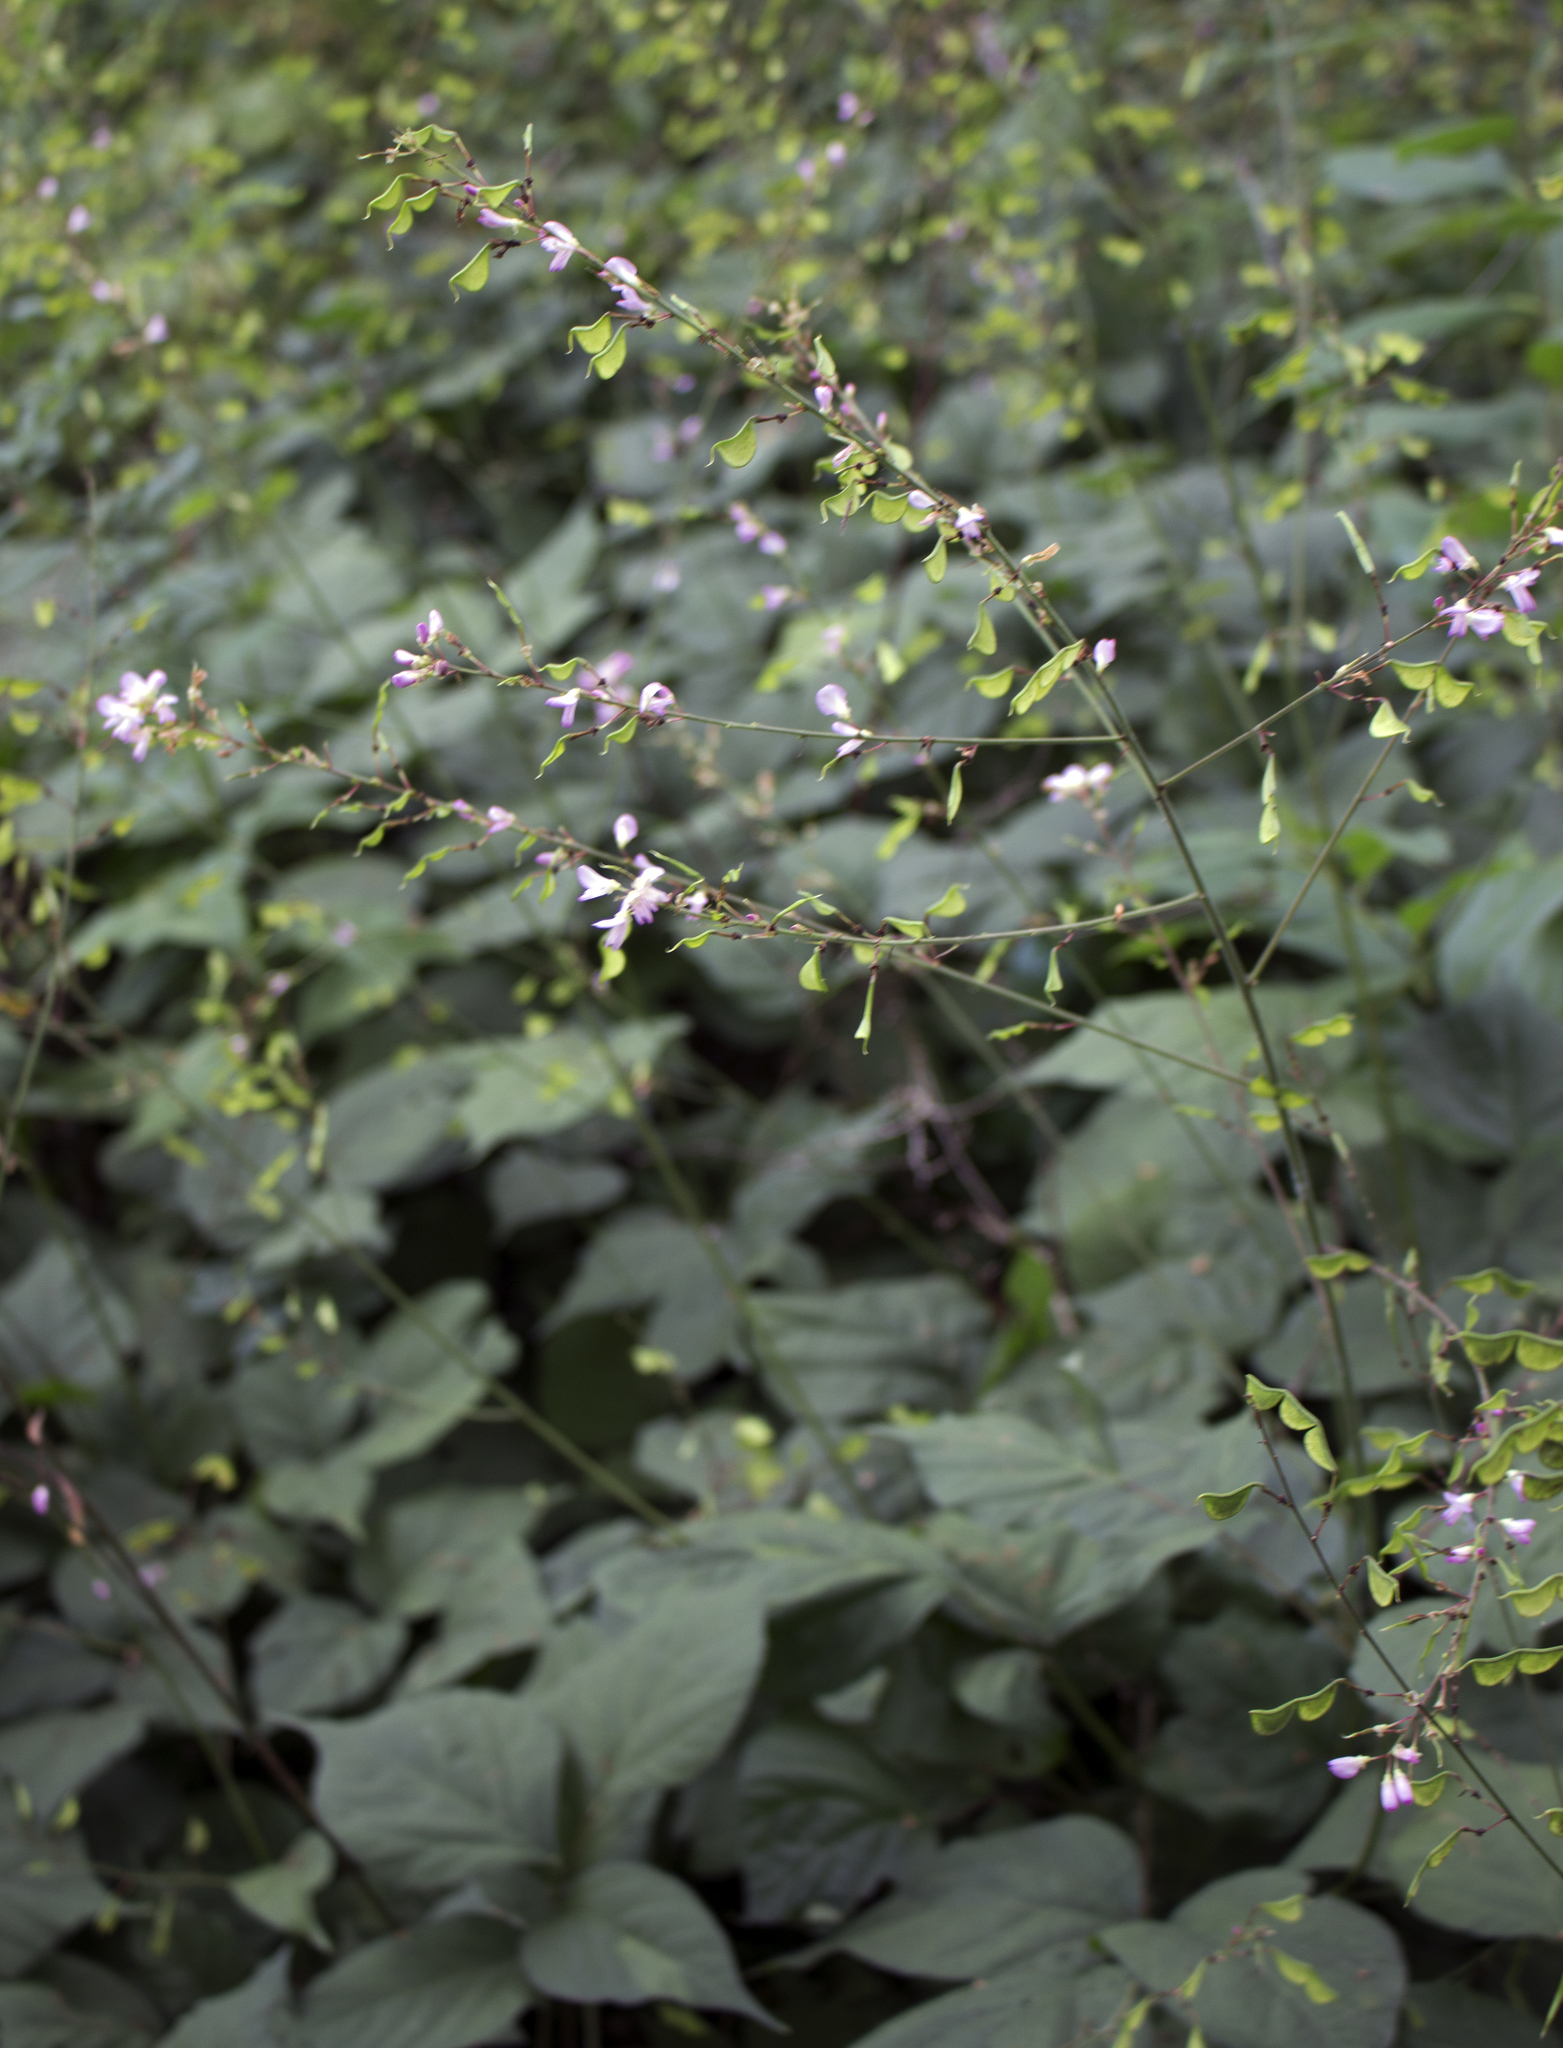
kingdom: Plantae
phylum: Tracheophyta
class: Magnoliopsida
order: Fabales
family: Fabaceae
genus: Hylodesmum
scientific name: Hylodesmum glutinosum
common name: Clustered-leaved tick-trefoil
